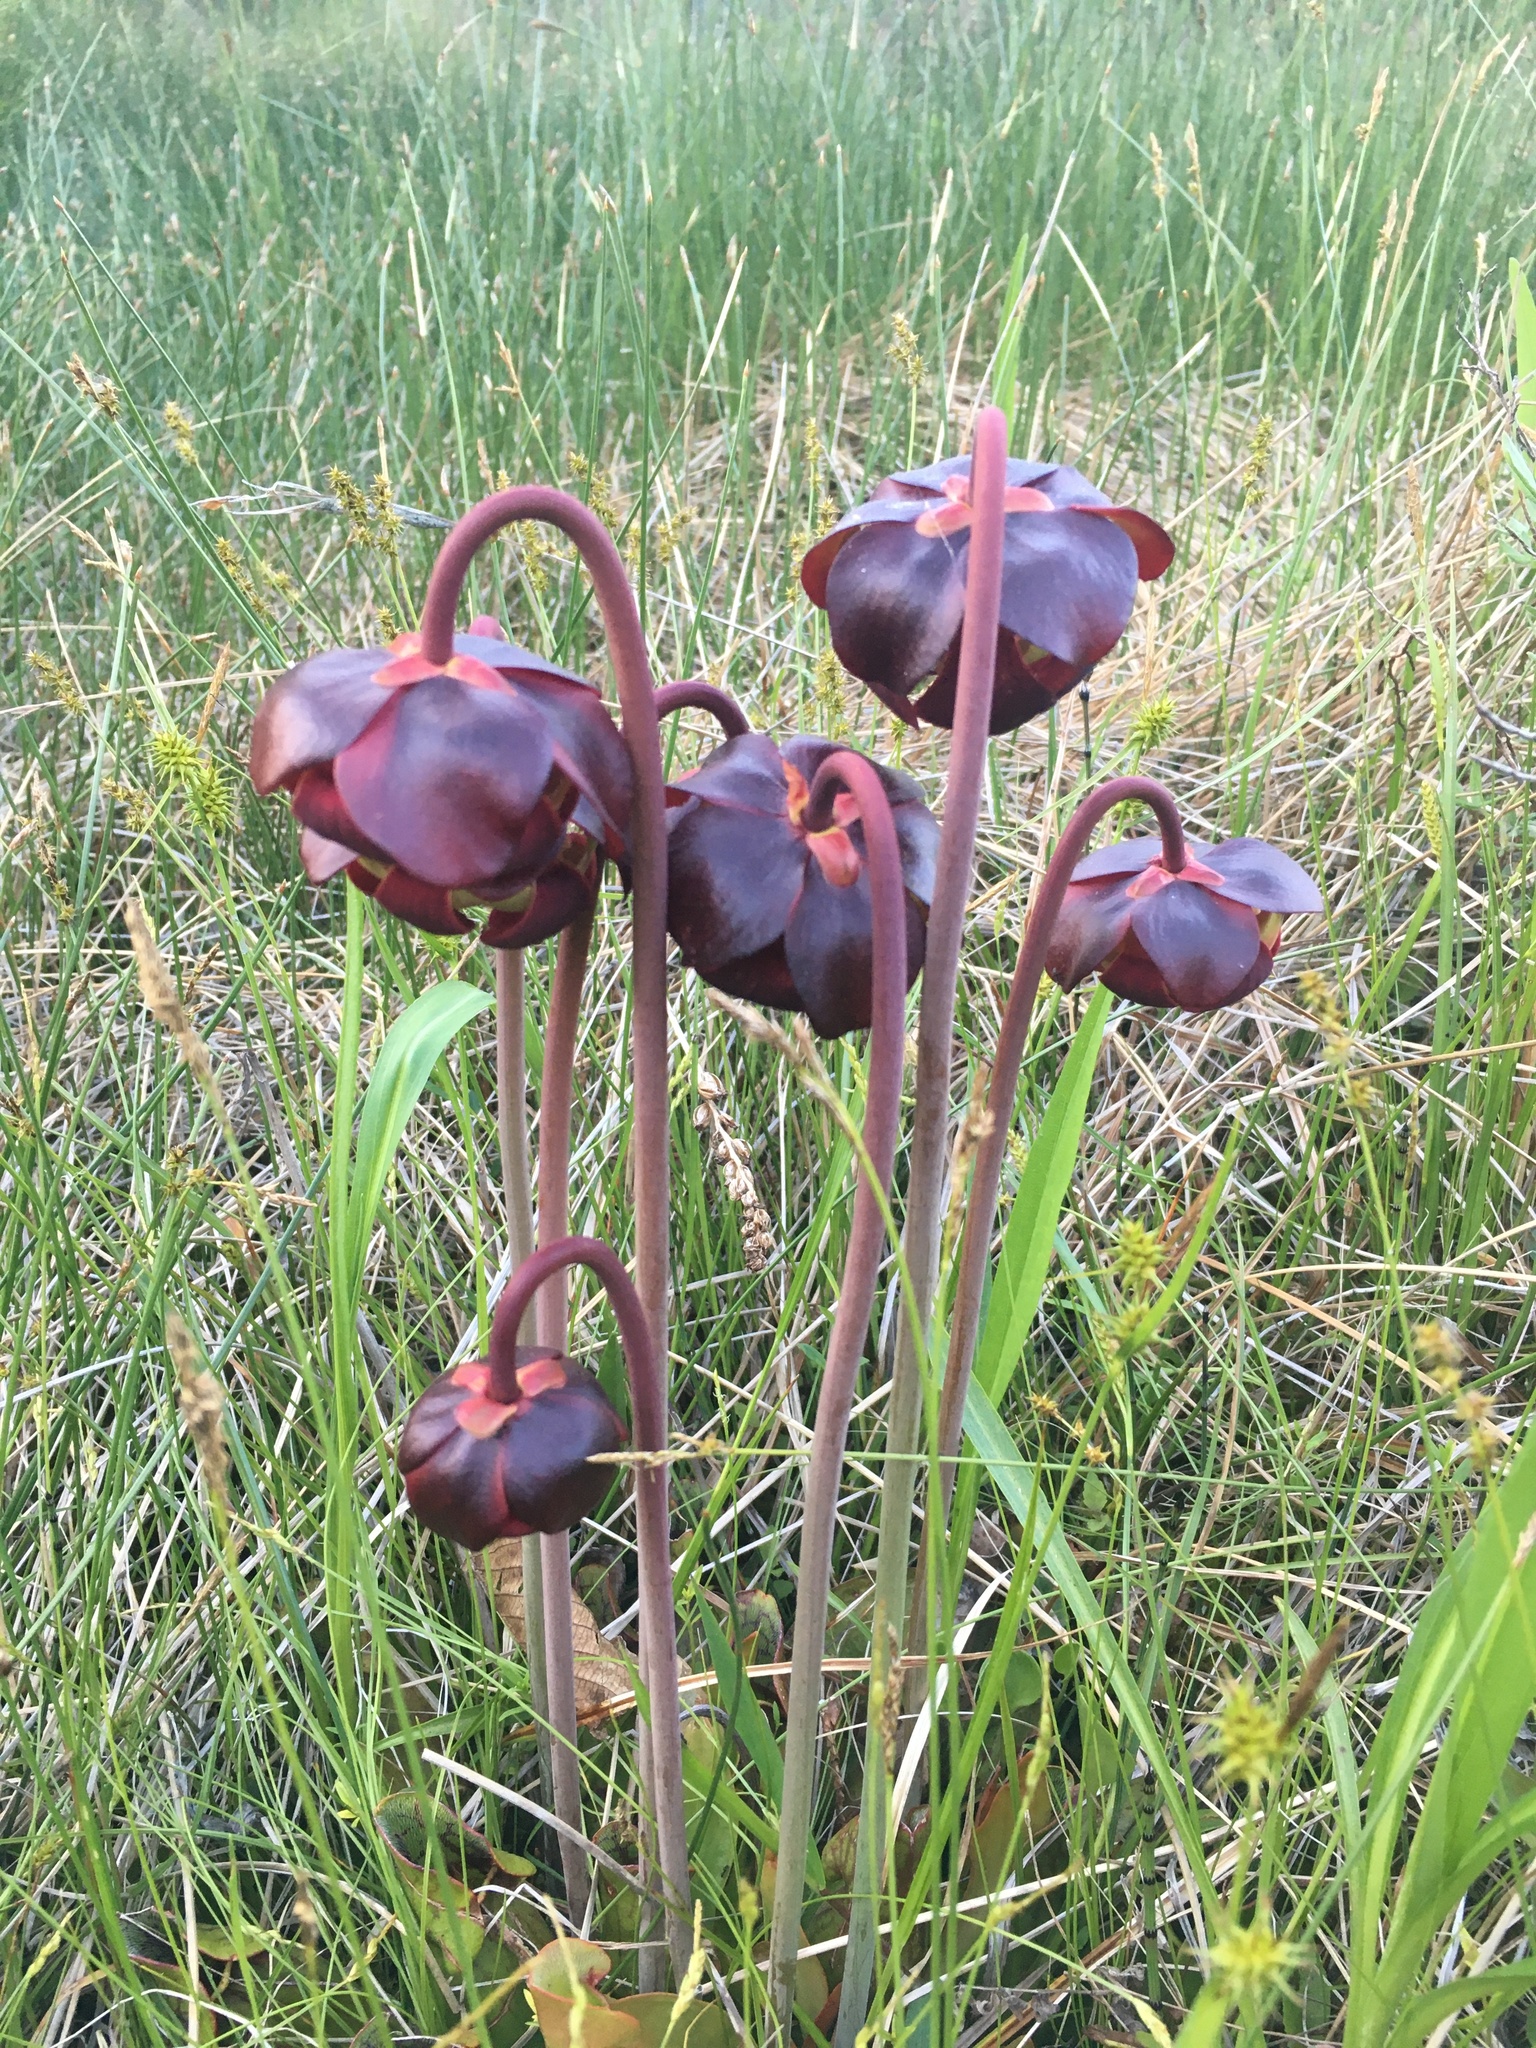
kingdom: Plantae
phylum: Tracheophyta
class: Magnoliopsida
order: Ericales
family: Sarraceniaceae
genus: Sarracenia
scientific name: Sarracenia purpurea
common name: Pitcherplant
